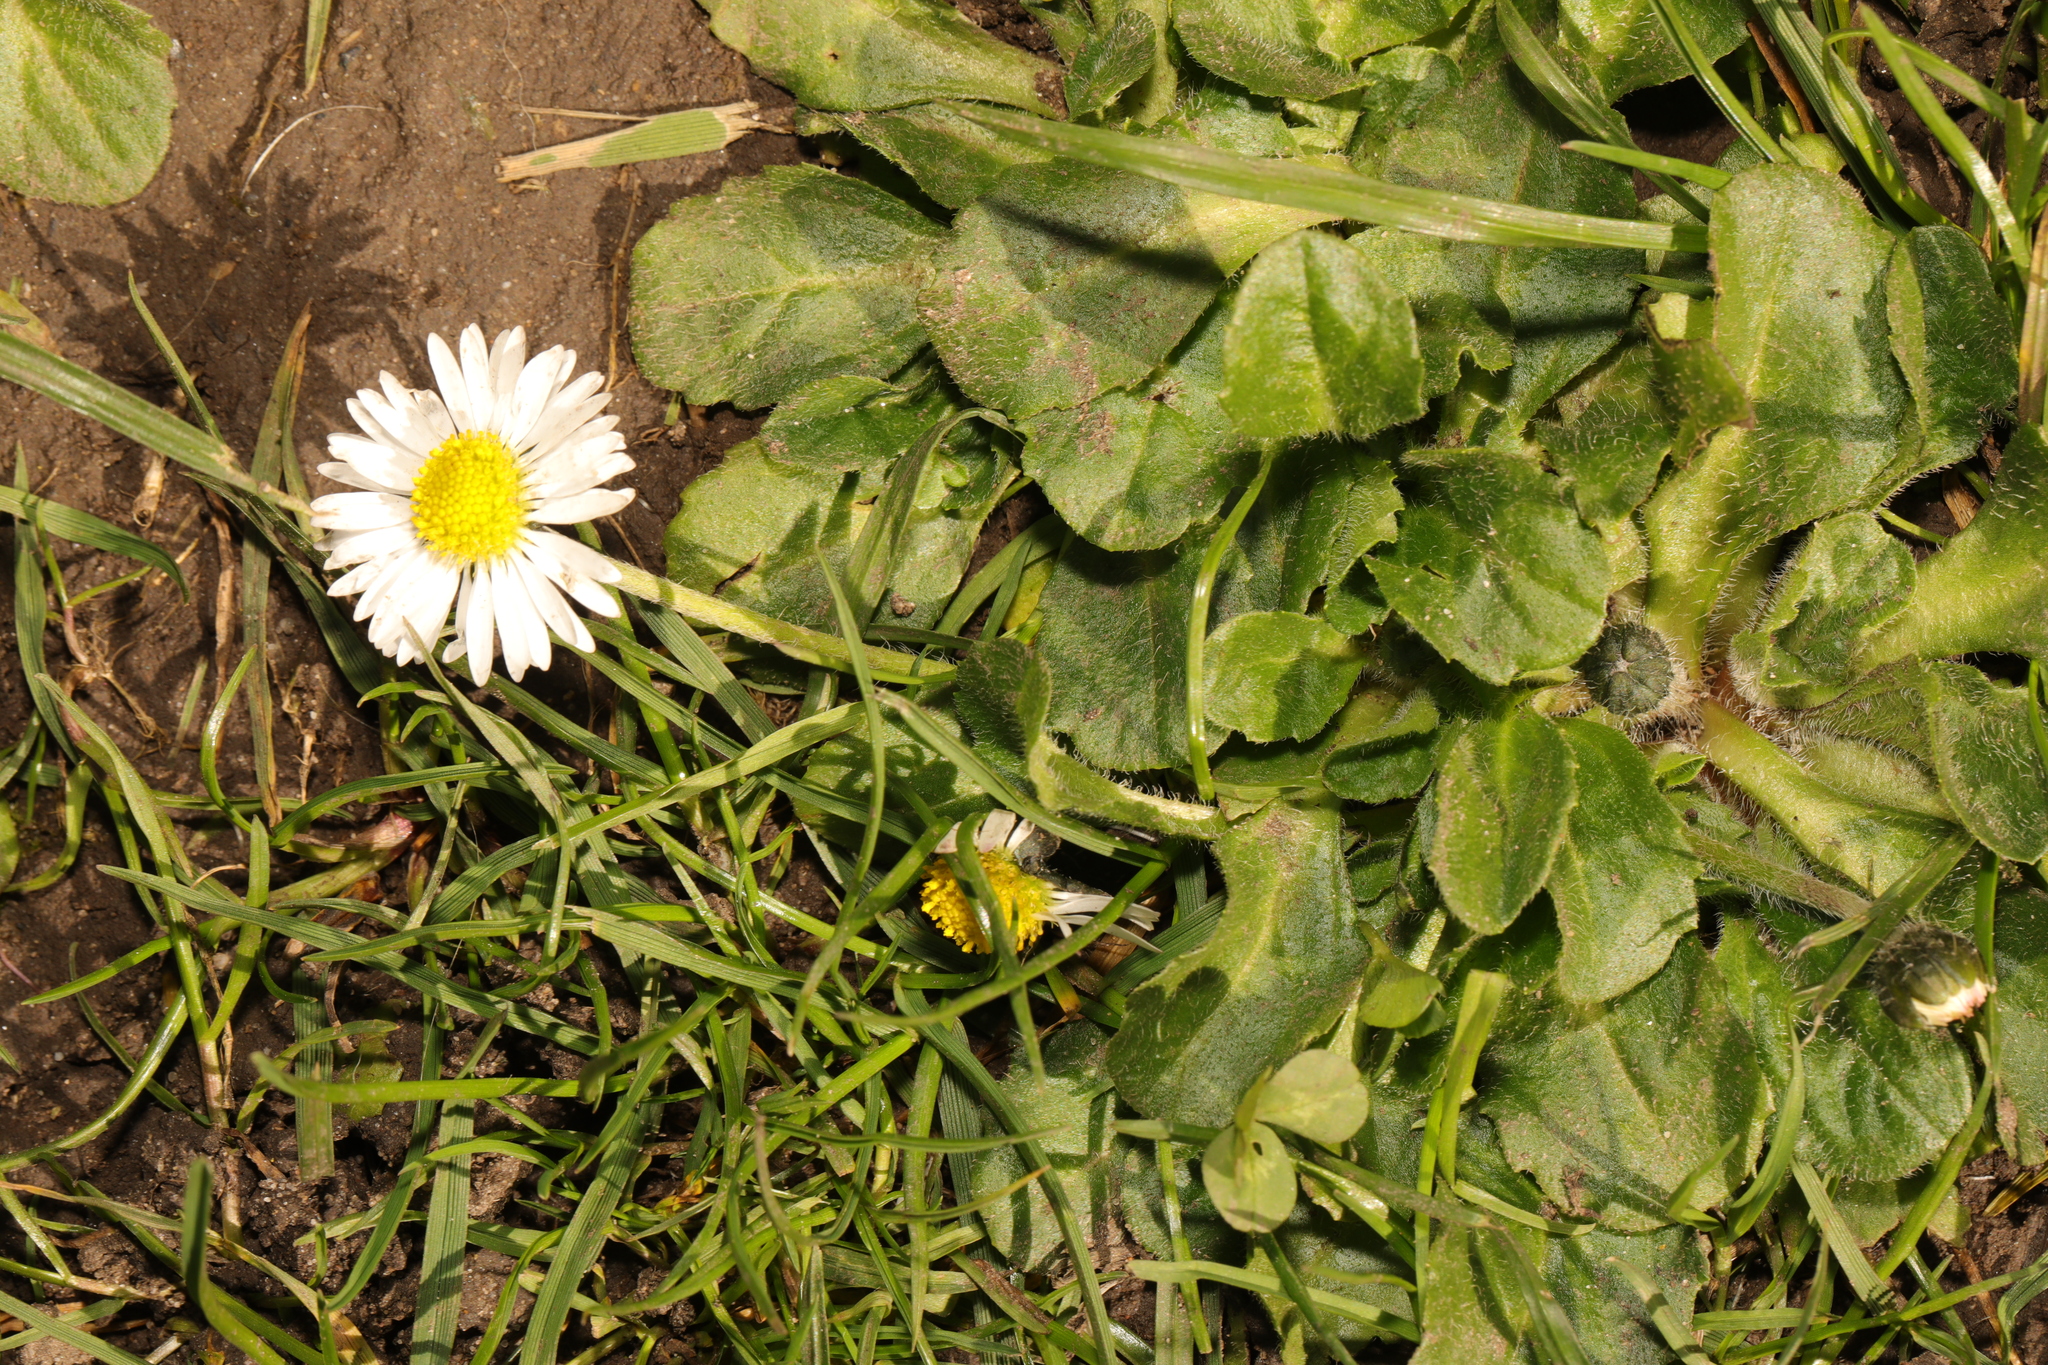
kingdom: Plantae
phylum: Tracheophyta
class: Magnoliopsida
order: Asterales
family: Asteraceae
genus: Bellis
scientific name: Bellis perennis
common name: Lawndaisy
